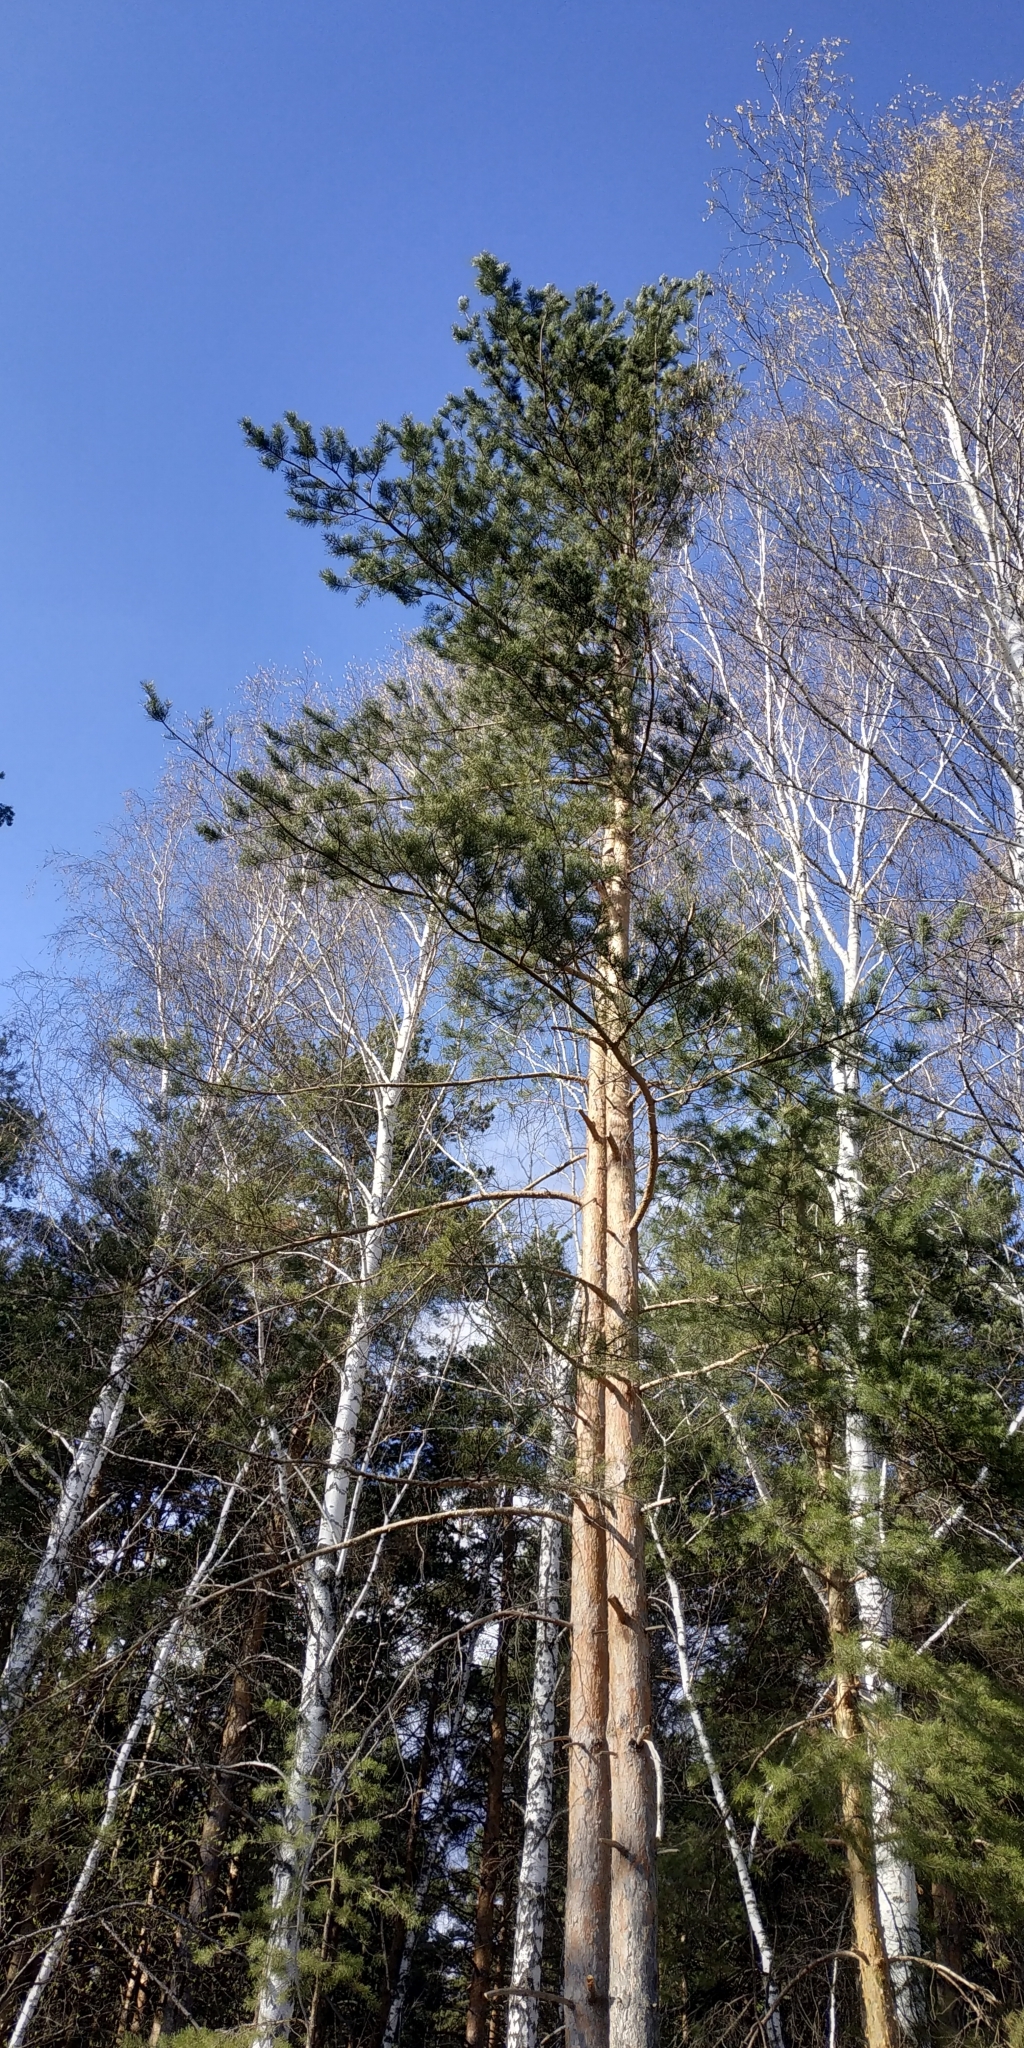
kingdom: Plantae
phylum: Tracheophyta
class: Pinopsida
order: Pinales
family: Pinaceae
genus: Pinus
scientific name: Pinus sylvestris
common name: Scots pine
